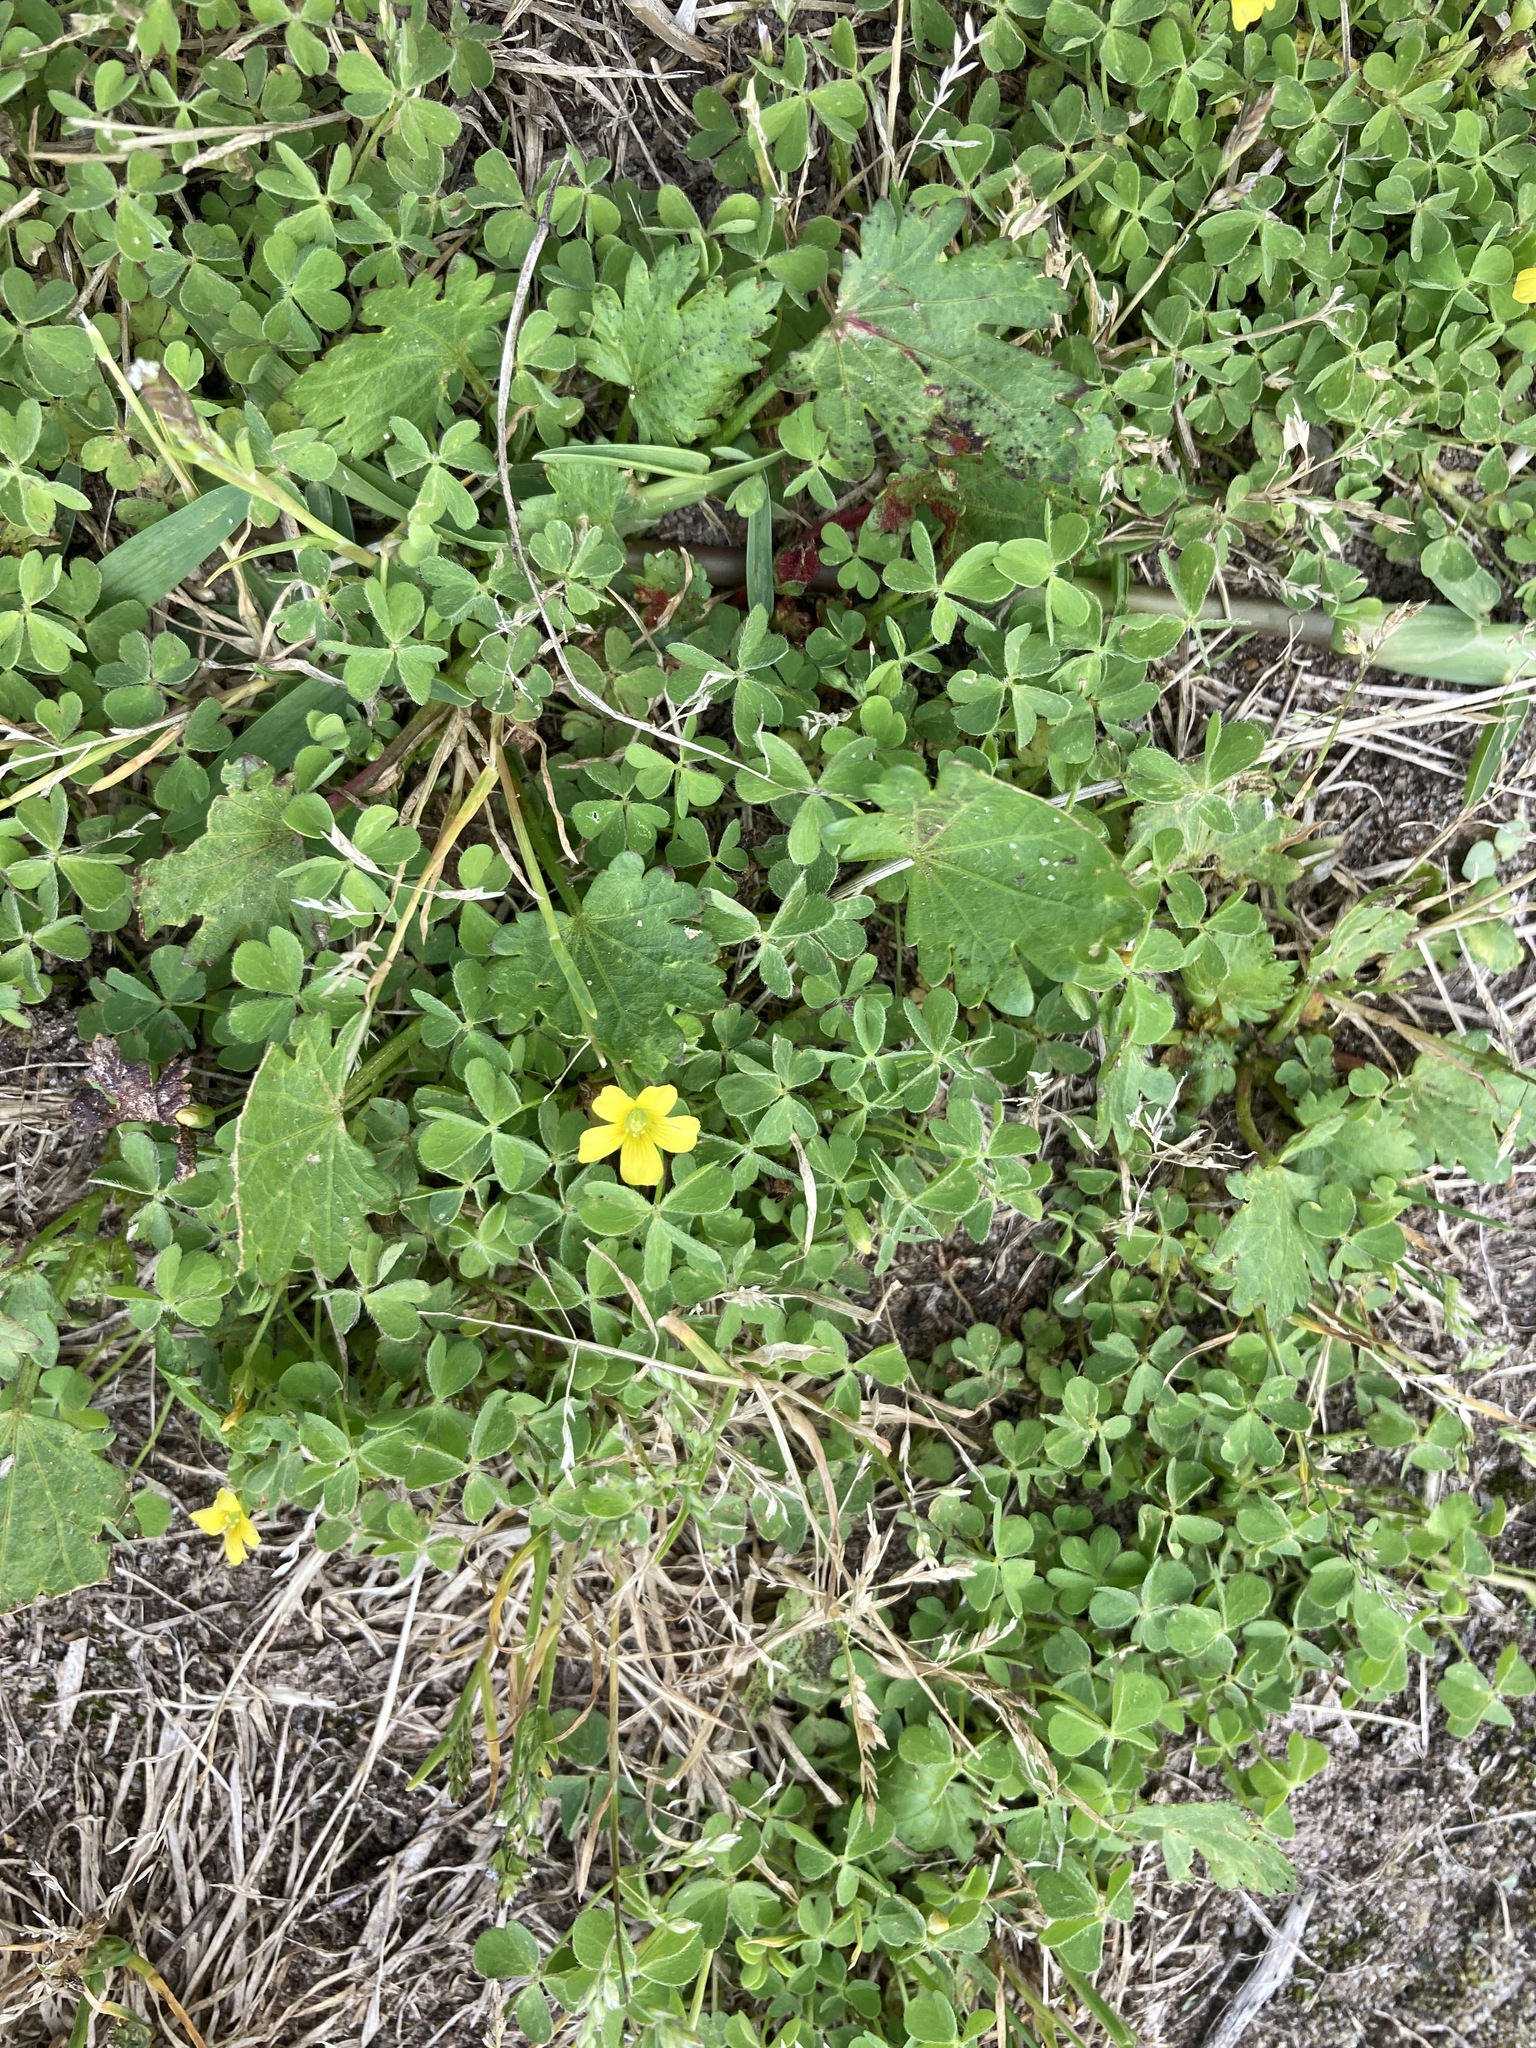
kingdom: Plantae
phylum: Tracheophyta
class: Magnoliopsida
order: Oxalidales
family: Oxalidaceae
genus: Oxalis
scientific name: Oxalis corniculata
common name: Procumbent yellow-sorrel
